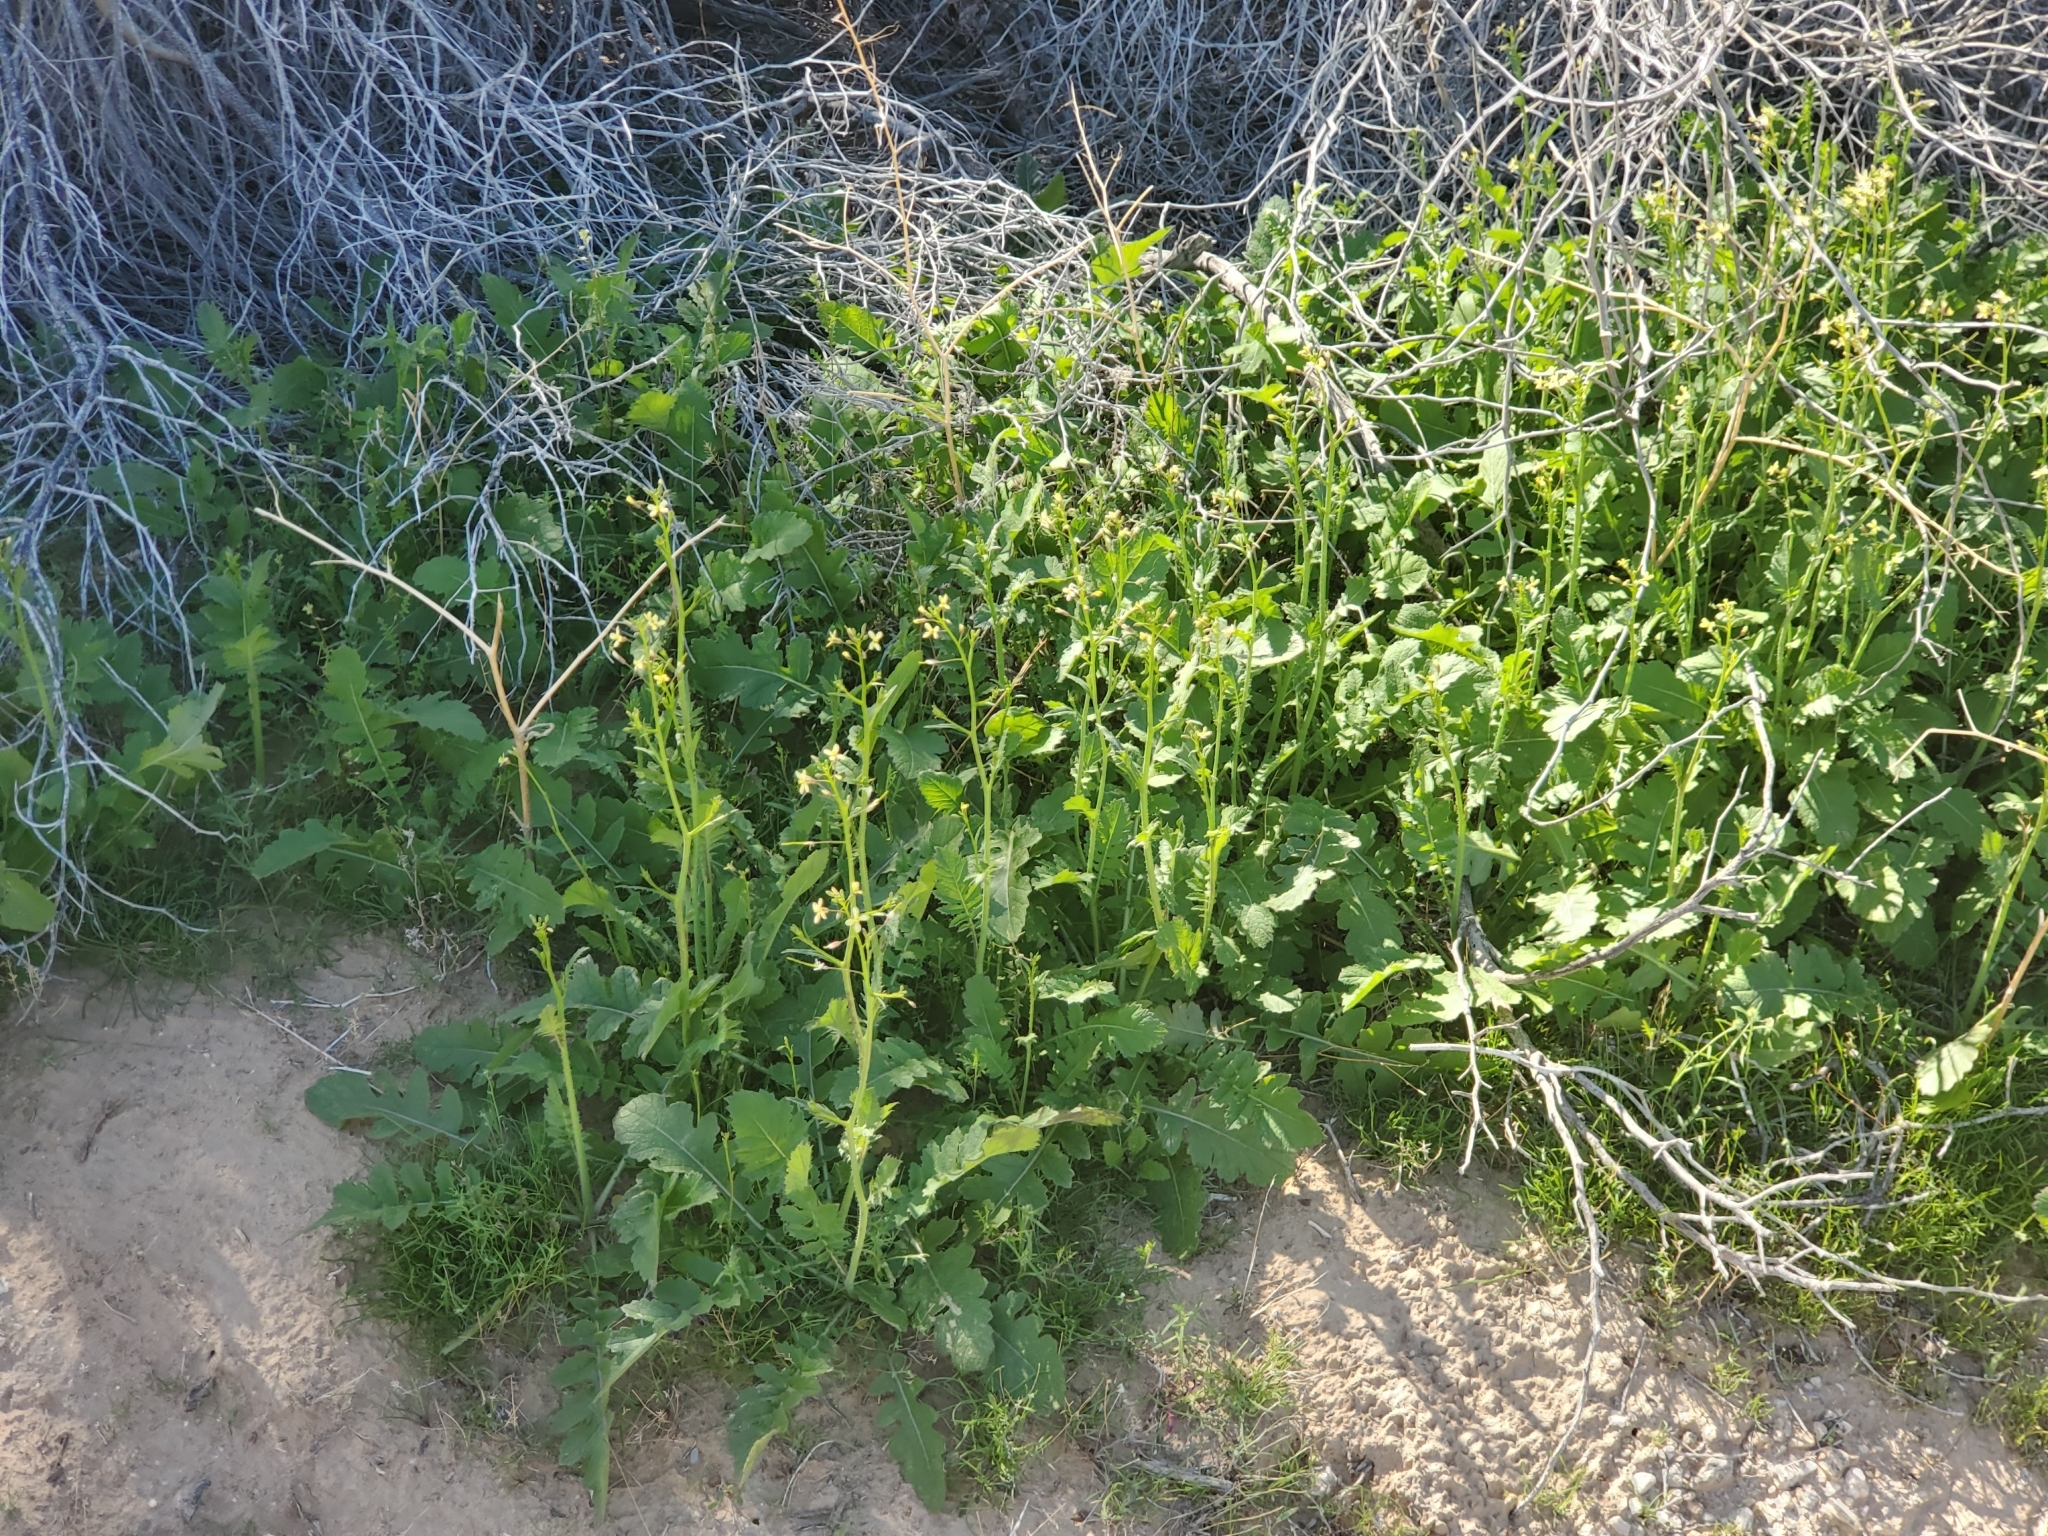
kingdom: Plantae
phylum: Tracheophyta
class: Magnoliopsida
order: Brassicales
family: Brassicaceae
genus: Brassica
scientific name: Brassica tournefortii
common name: Pale cabbage
